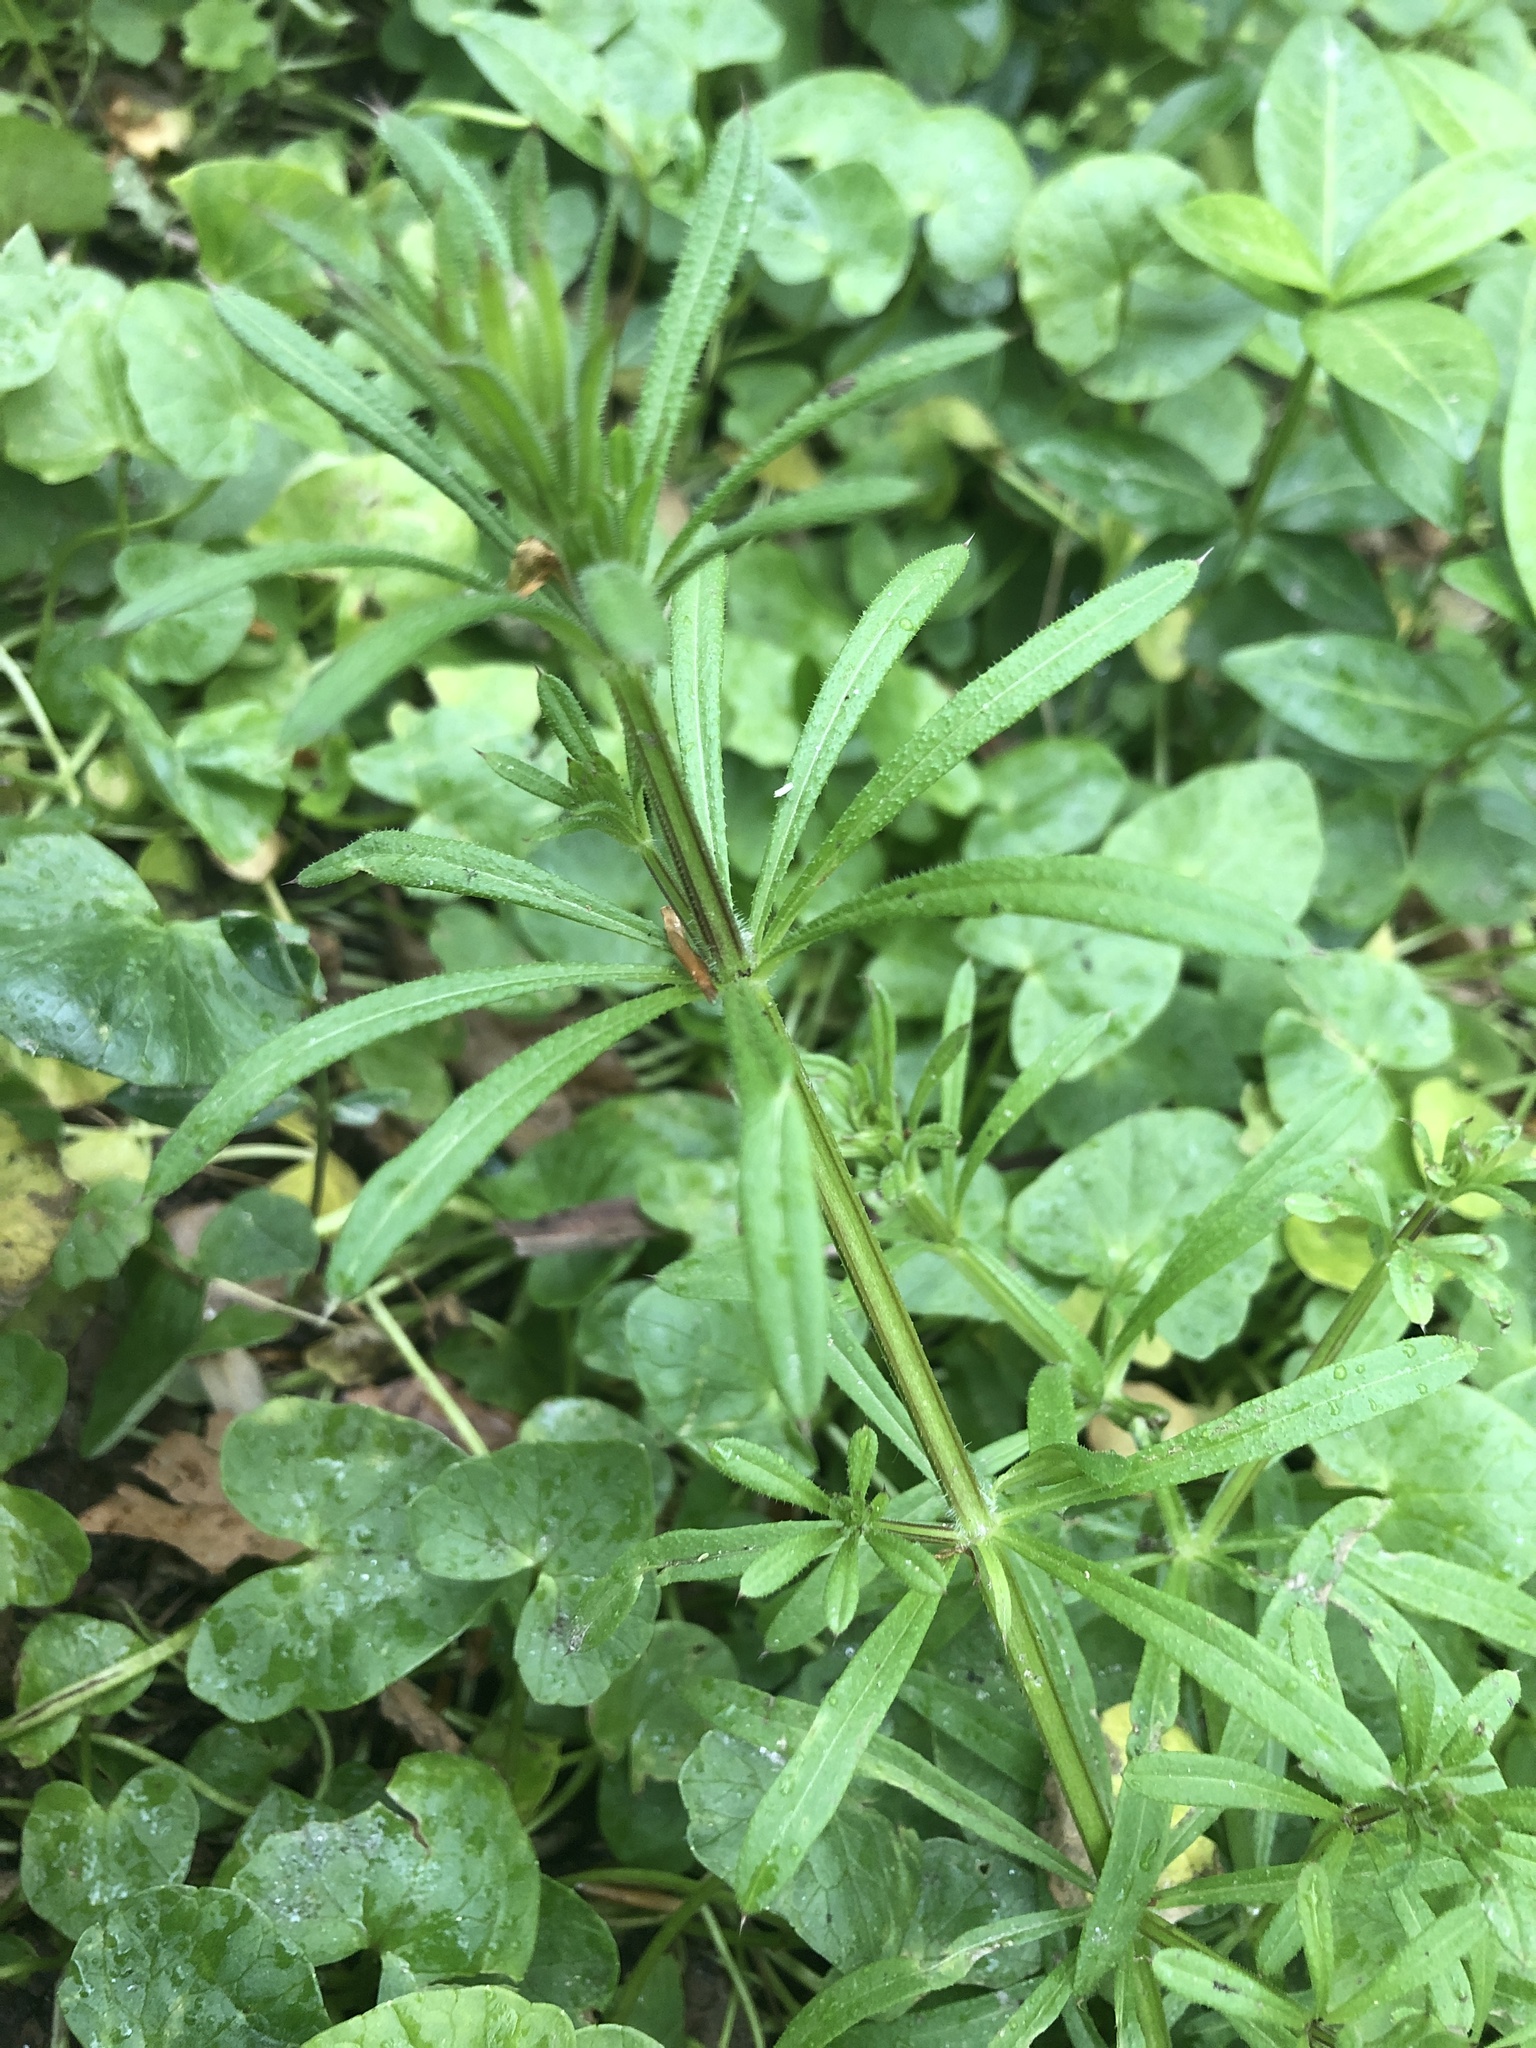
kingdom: Plantae
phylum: Tracheophyta
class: Magnoliopsida
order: Gentianales
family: Rubiaceae
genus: Galium
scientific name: Galium aparine
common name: Cleavers
